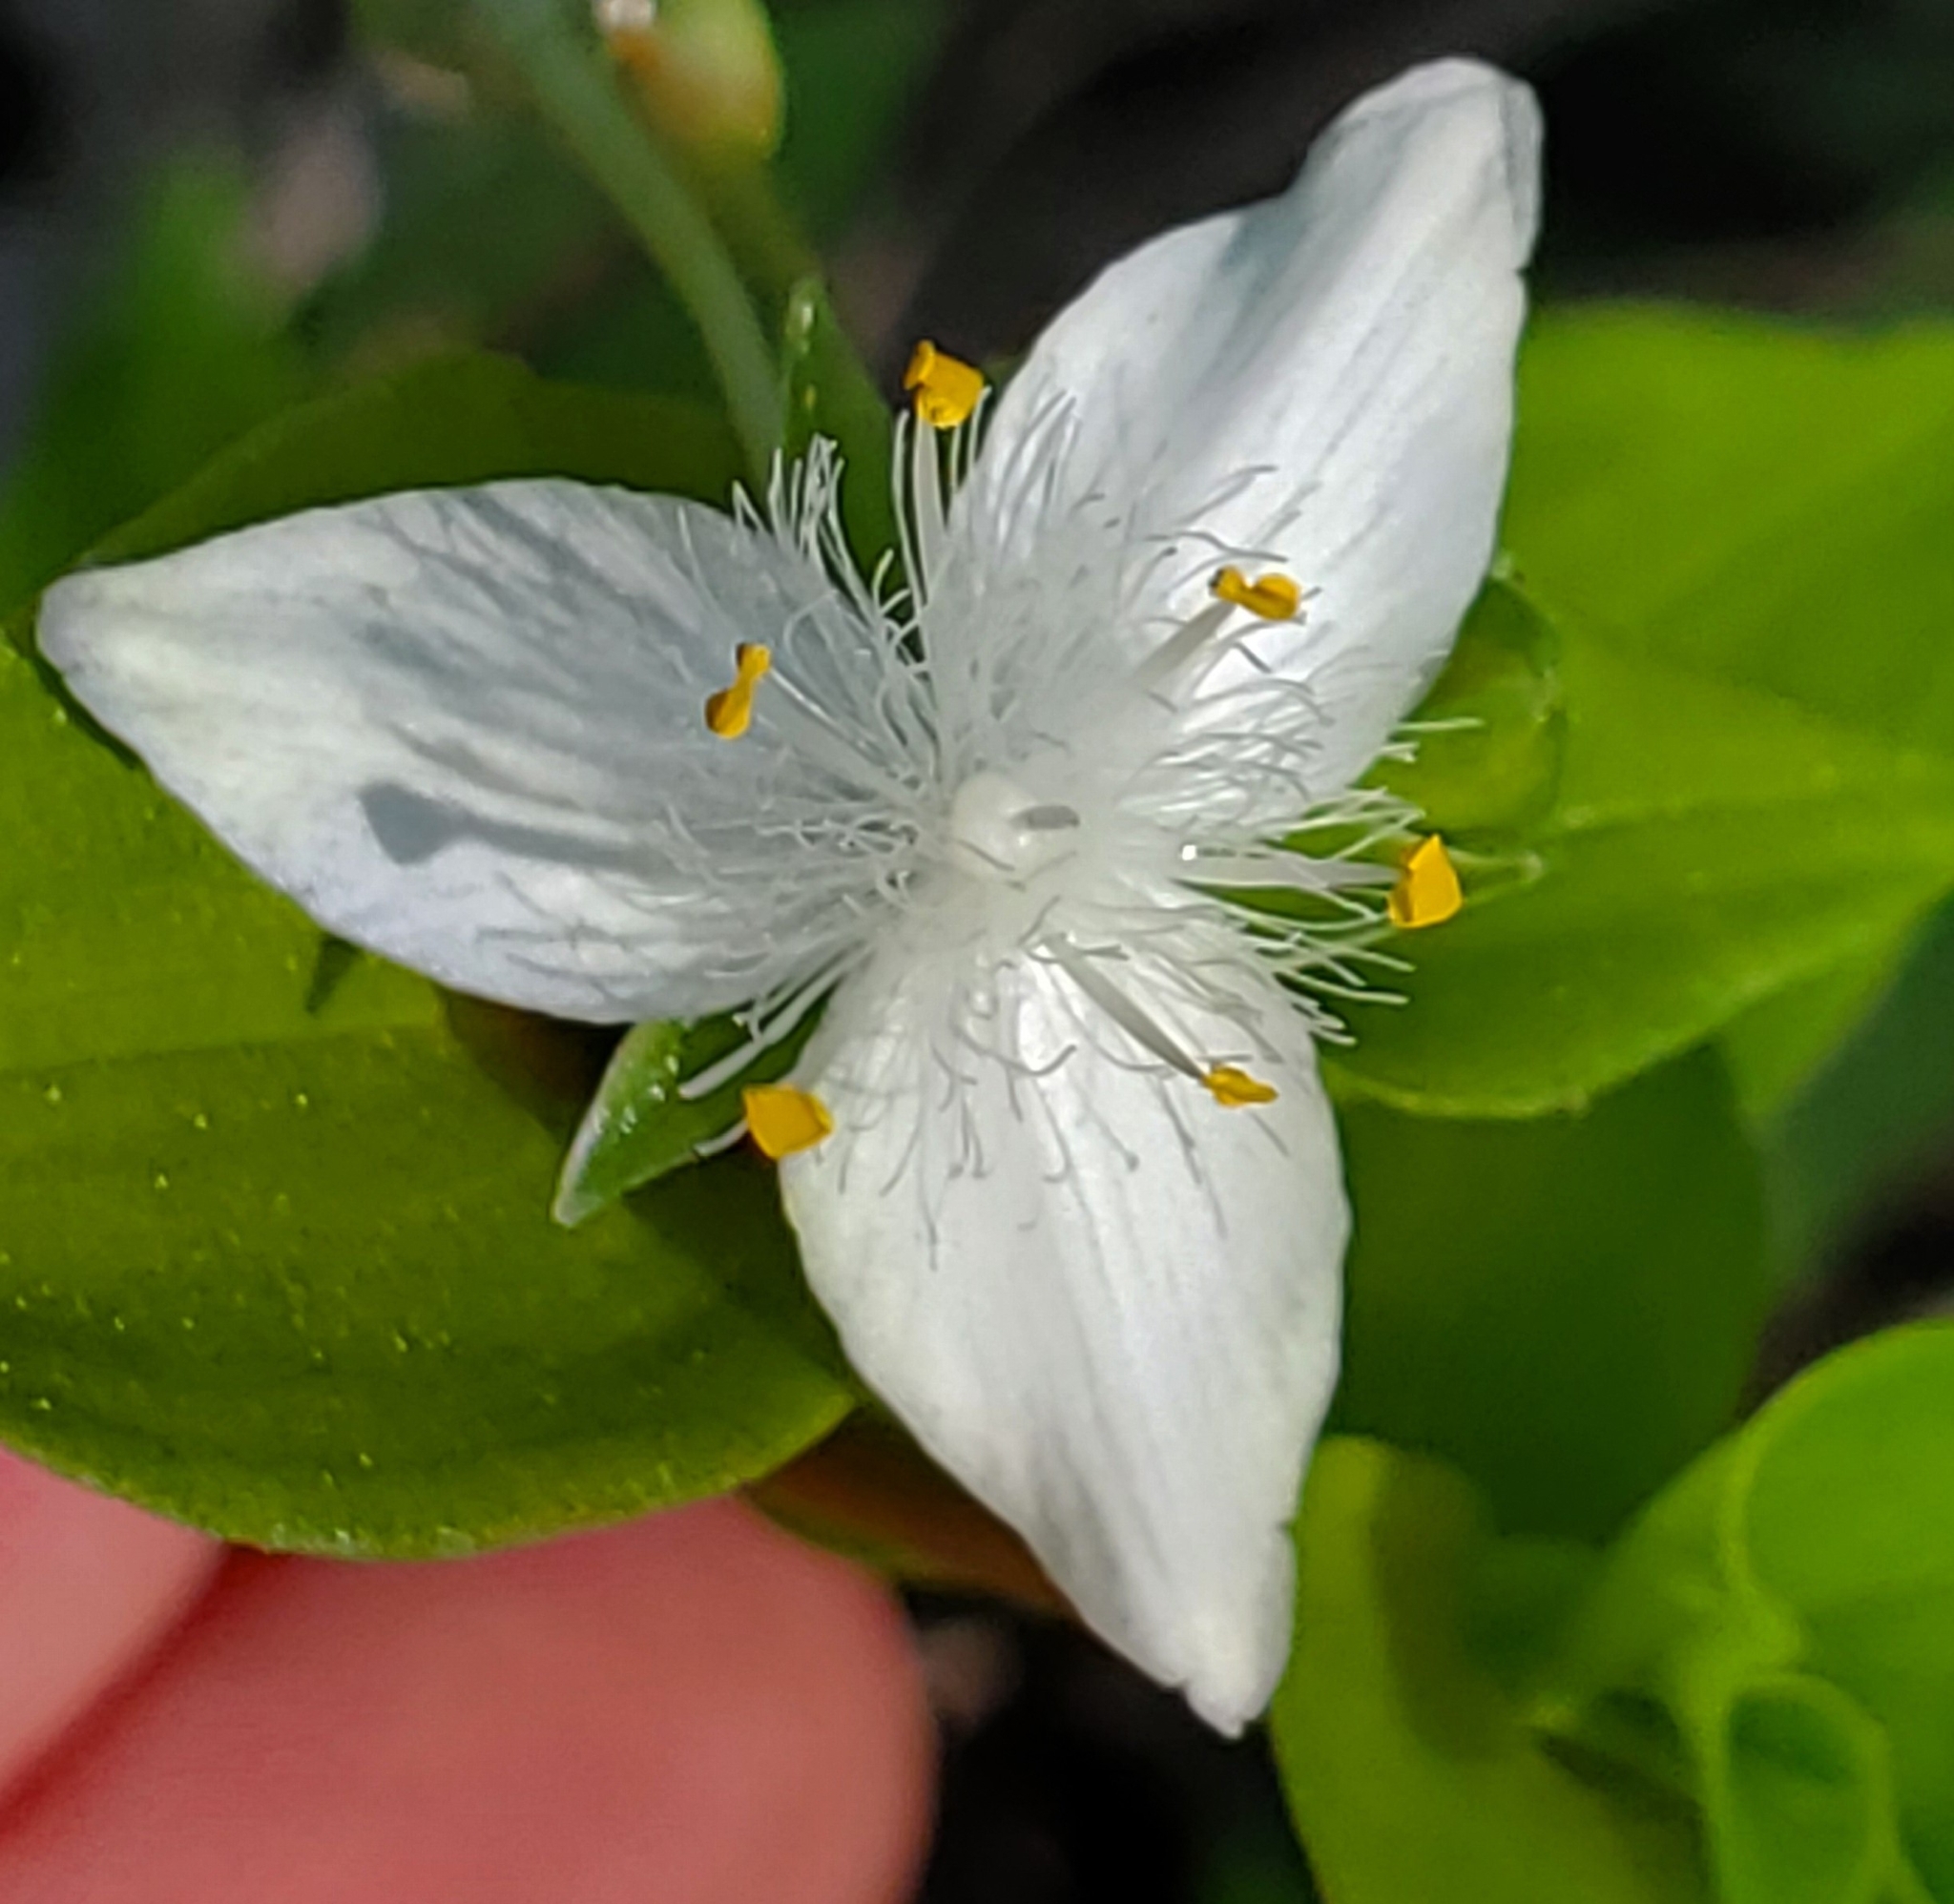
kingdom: Plantae
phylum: Tracheophyta
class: Liliopsida
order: Commelinales
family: Commelinaceae
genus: Tradescantia
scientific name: Tradescantia fluminensis
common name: Wandering-jew
